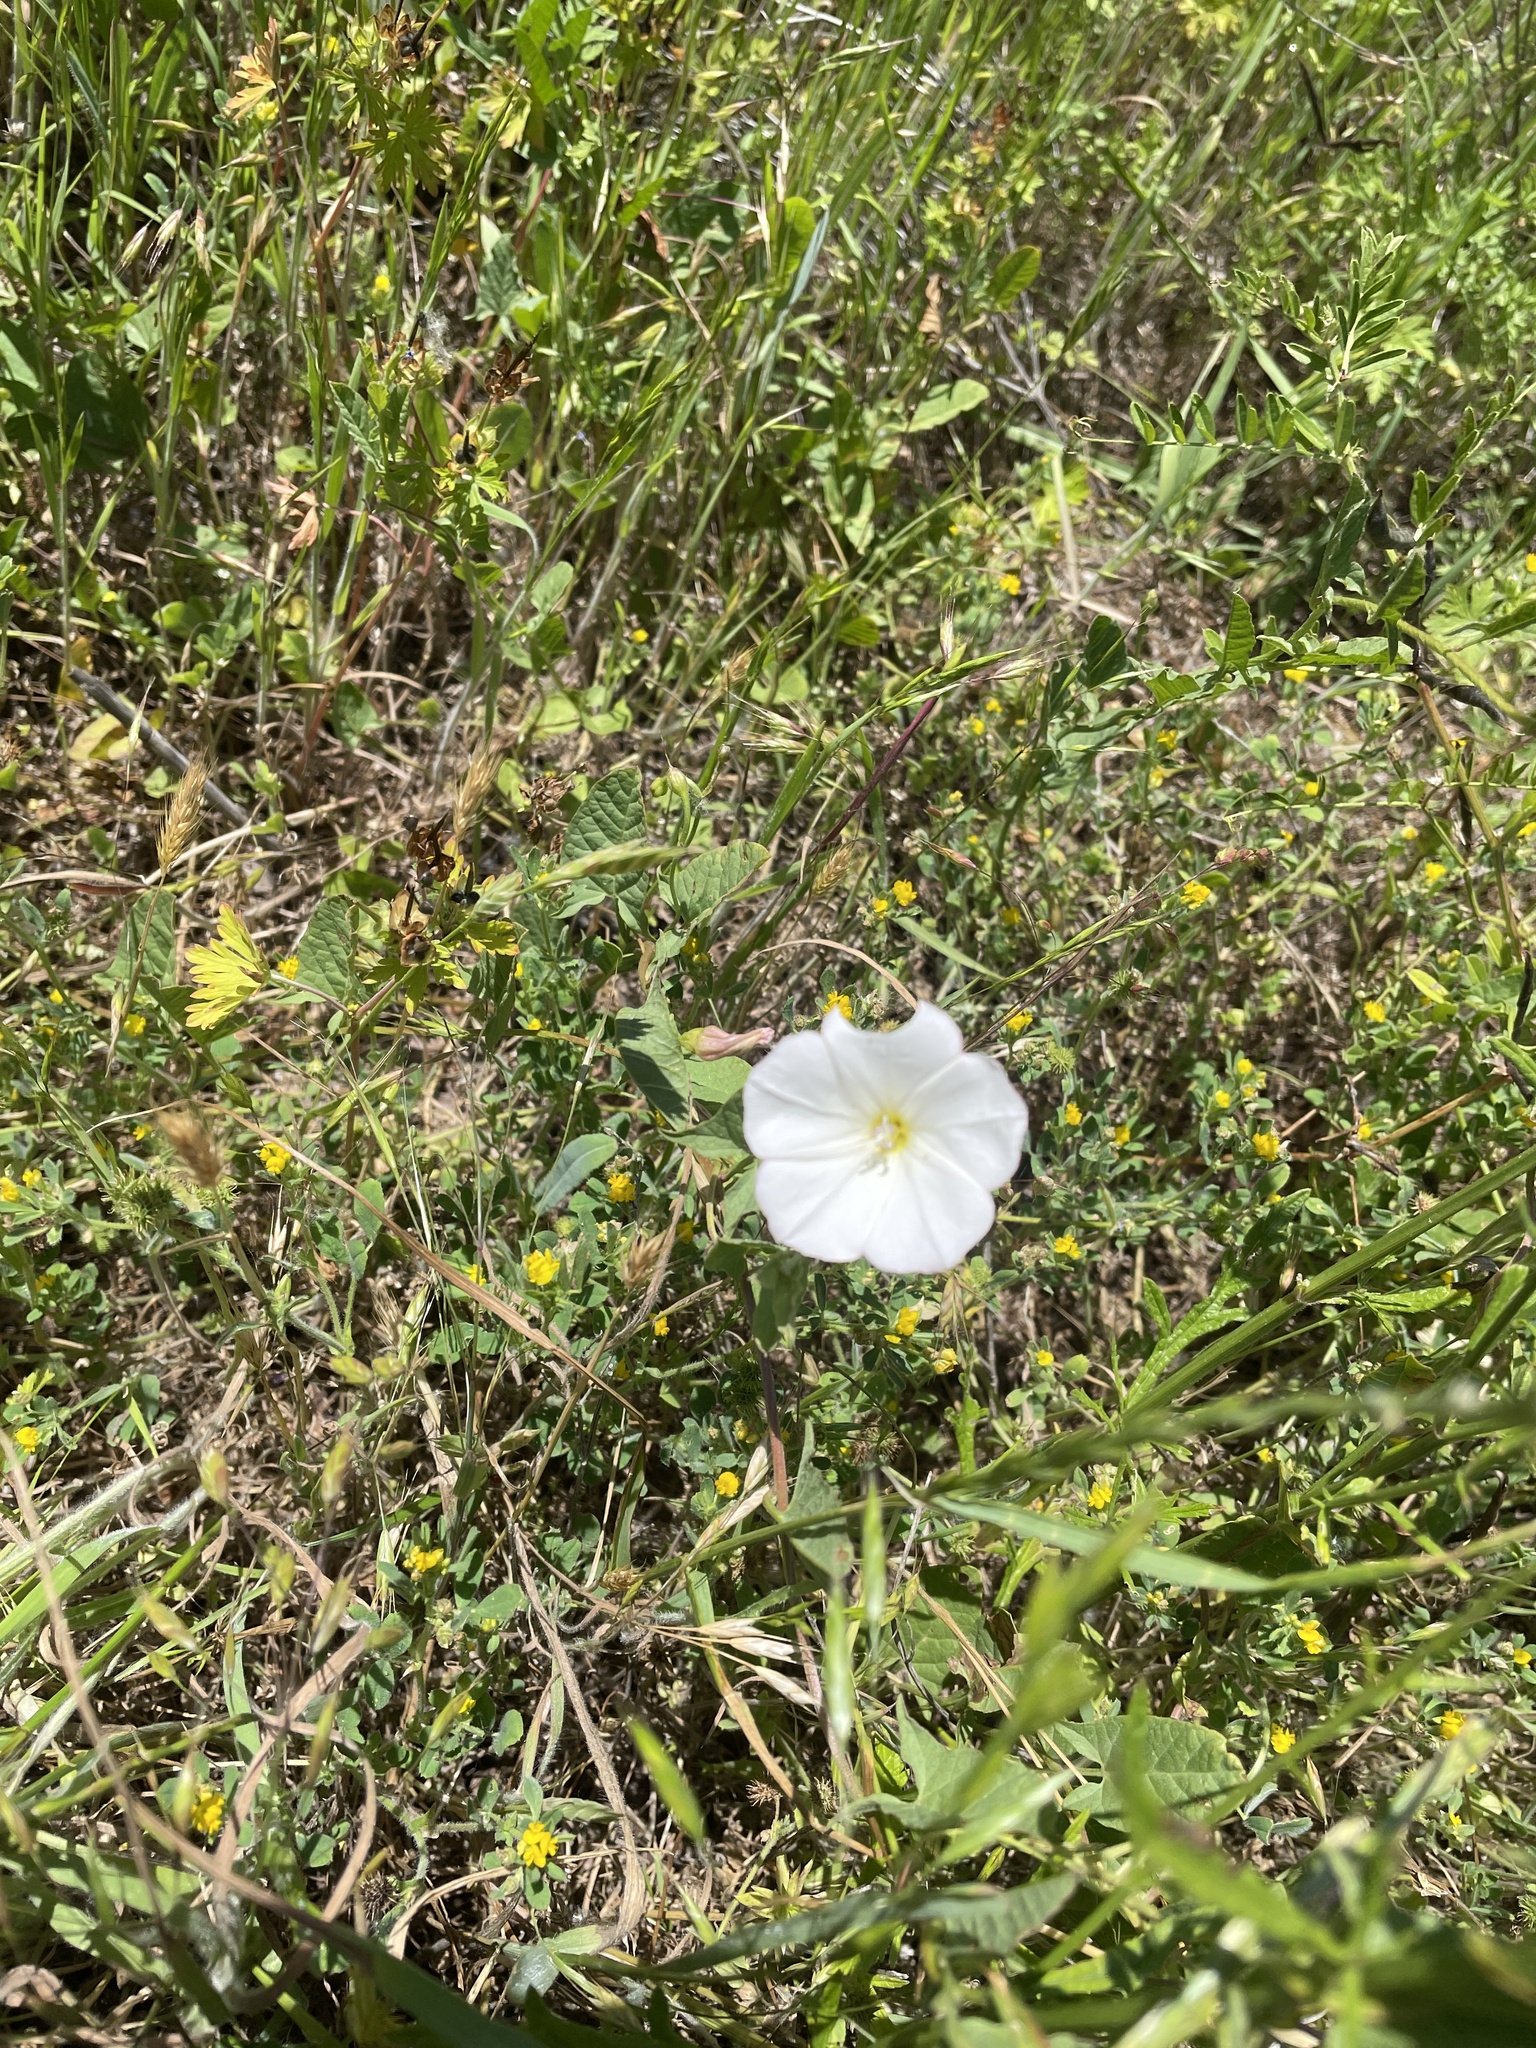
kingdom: Plantae
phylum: Tracheophyta
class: Magnoliopsida
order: Solanales
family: Convolvulaceae
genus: Convolvulus
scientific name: Convolvulus arvensis
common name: Field bindweed
